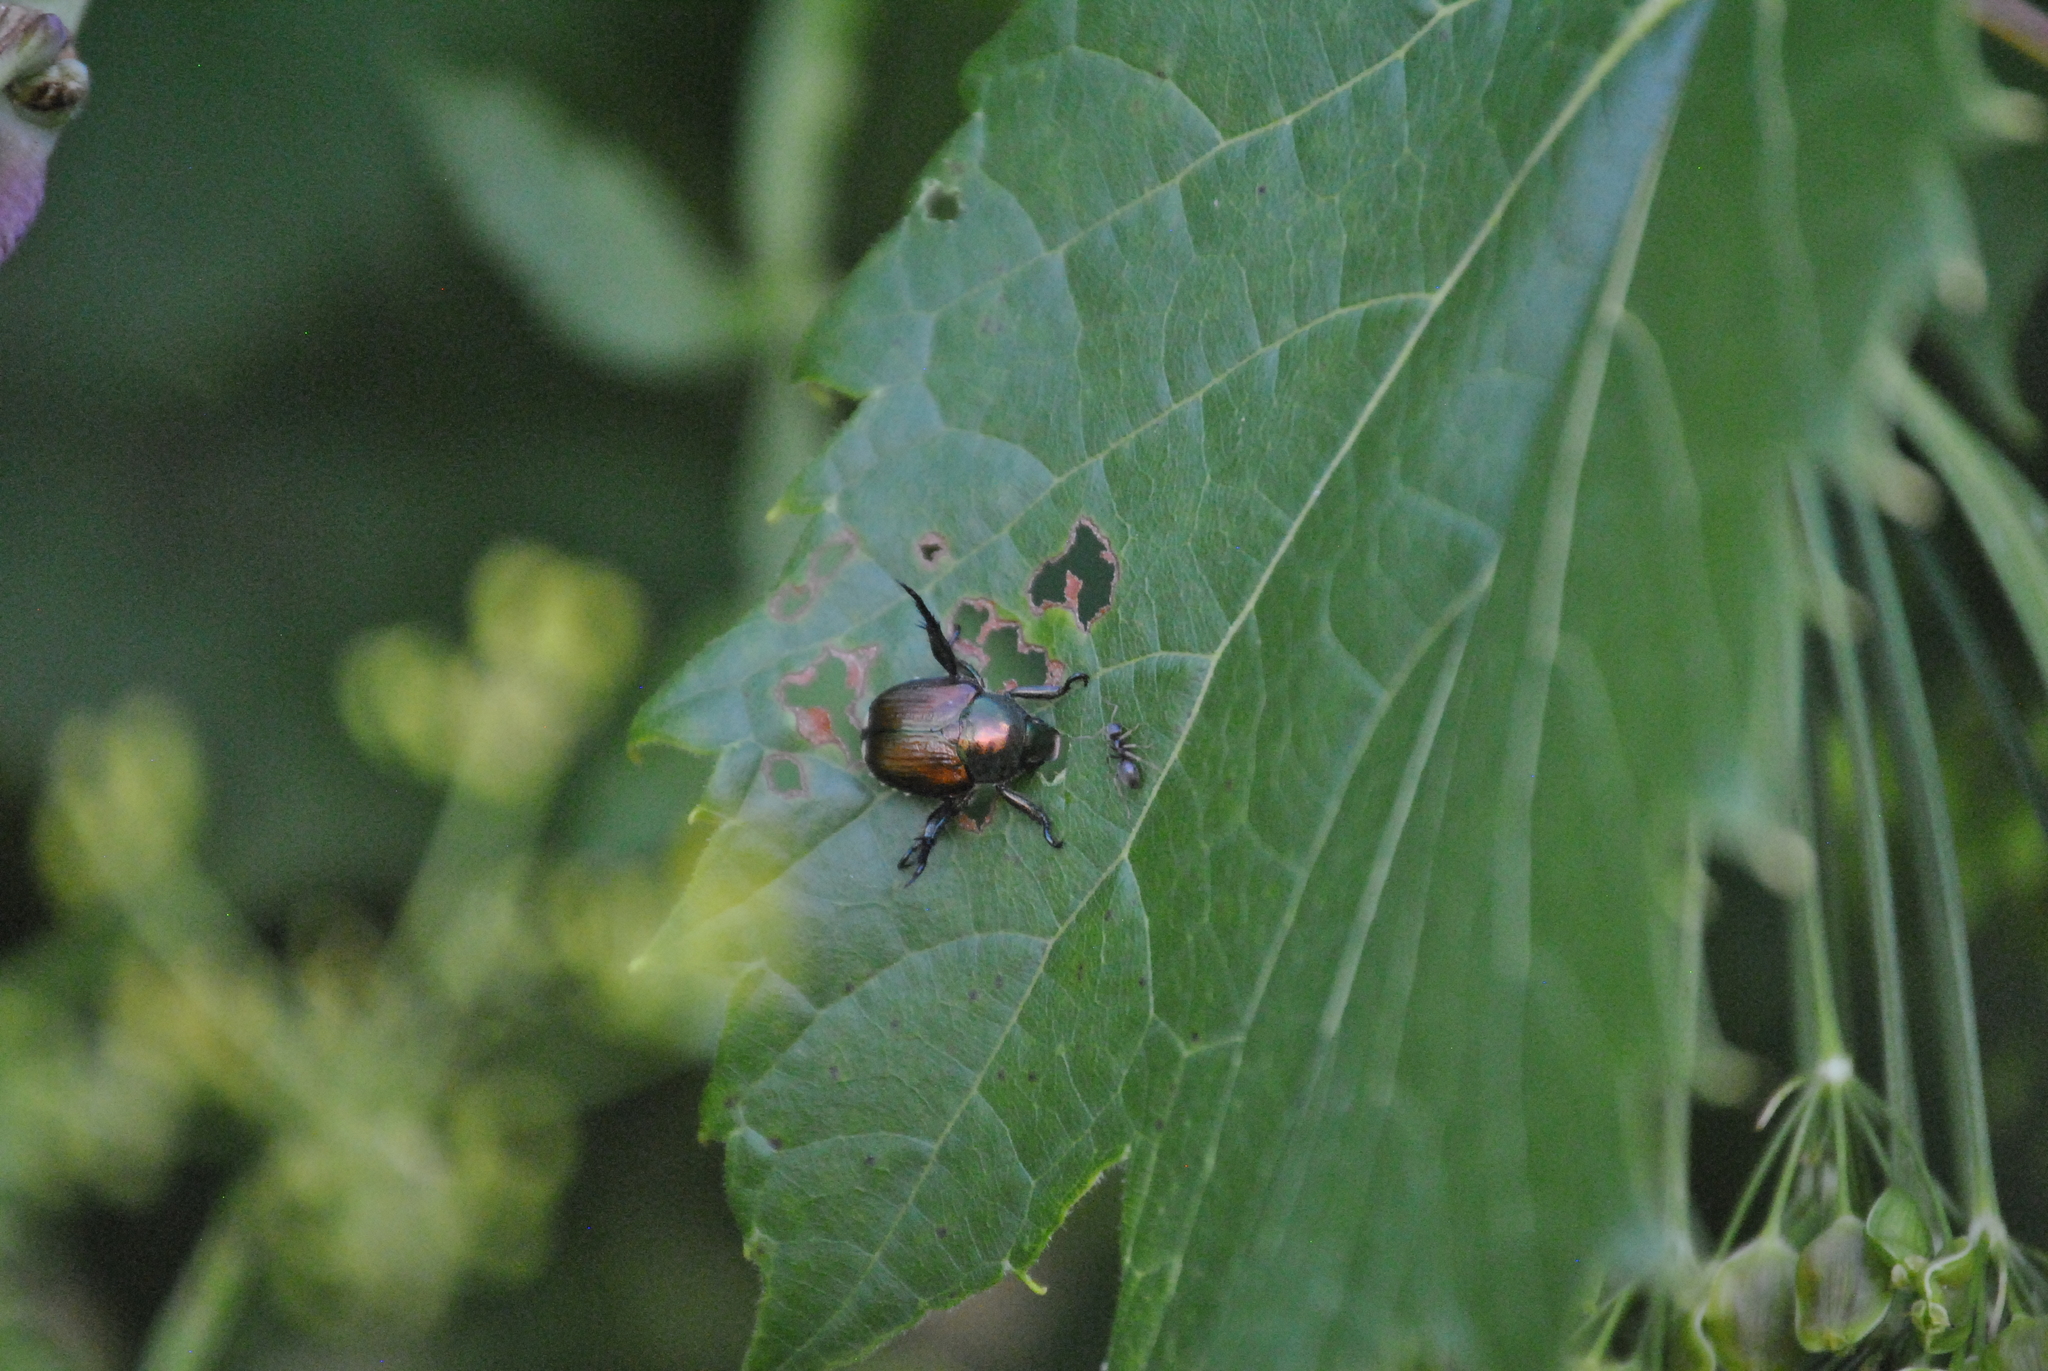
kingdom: Animalia
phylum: Arthropoda
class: Insecta
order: Coleoptera
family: Scarabaeidae
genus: Popillia
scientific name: Popillia japonica
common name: Japanese beetle
